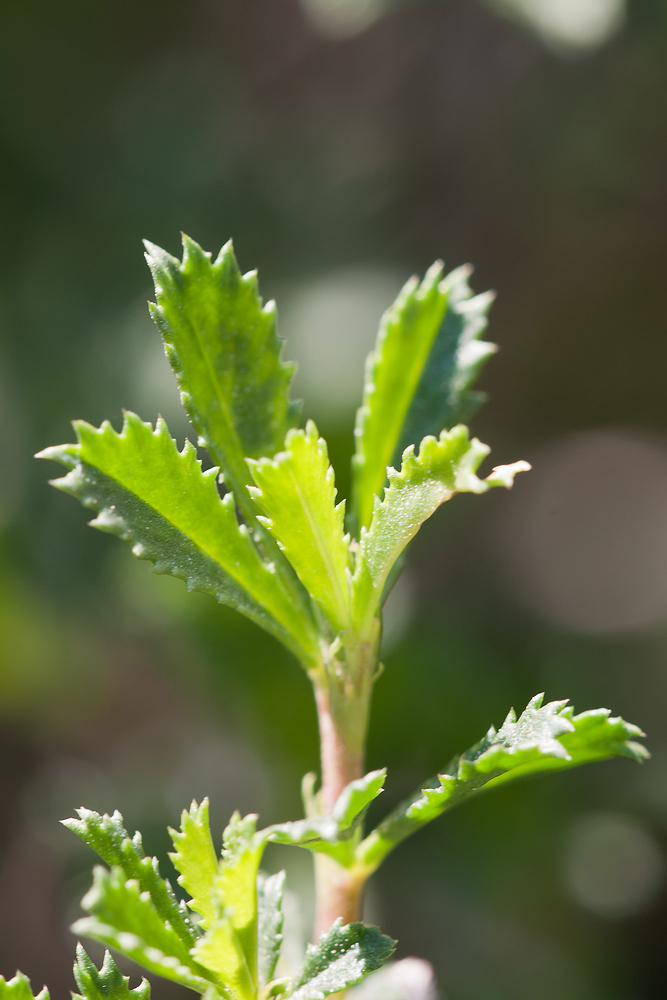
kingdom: Plantae
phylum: Tracheophyta
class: Magnoliopsida
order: Fabales
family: Fabaceae
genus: Ononis
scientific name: Ononis fruticosa
